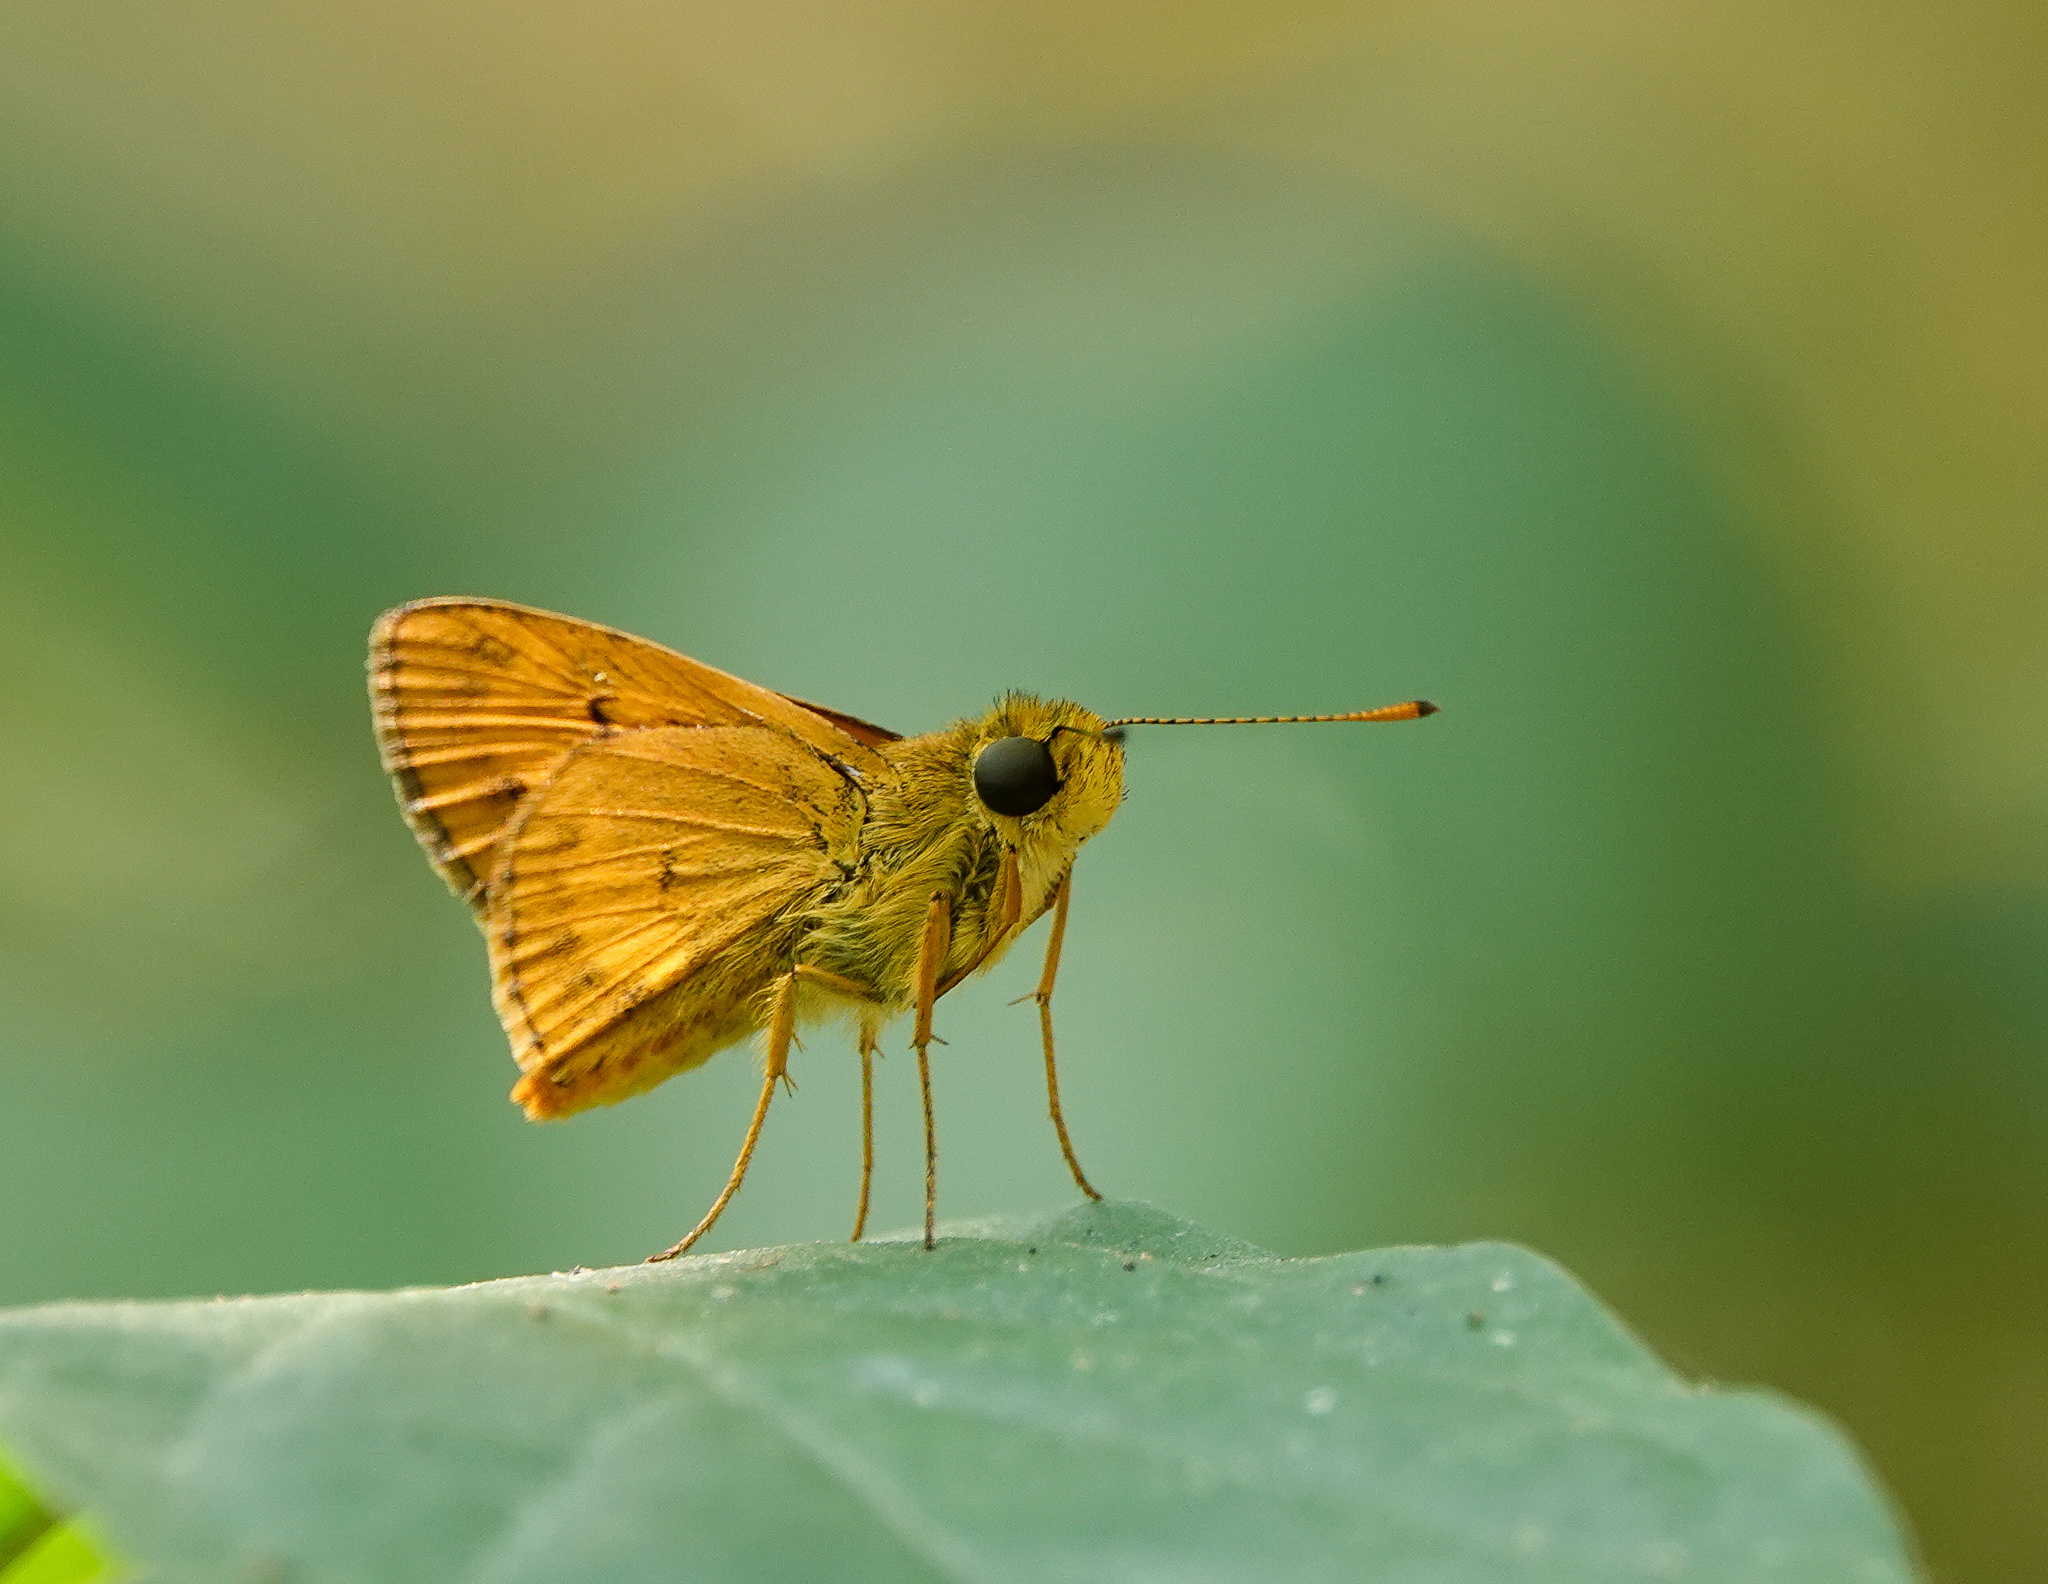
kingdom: Animalia
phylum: Arthropoda
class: Insecta
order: Lepidoptera
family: Hesperiidae
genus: Oriens
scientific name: Oriens gola
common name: Common dartlet
